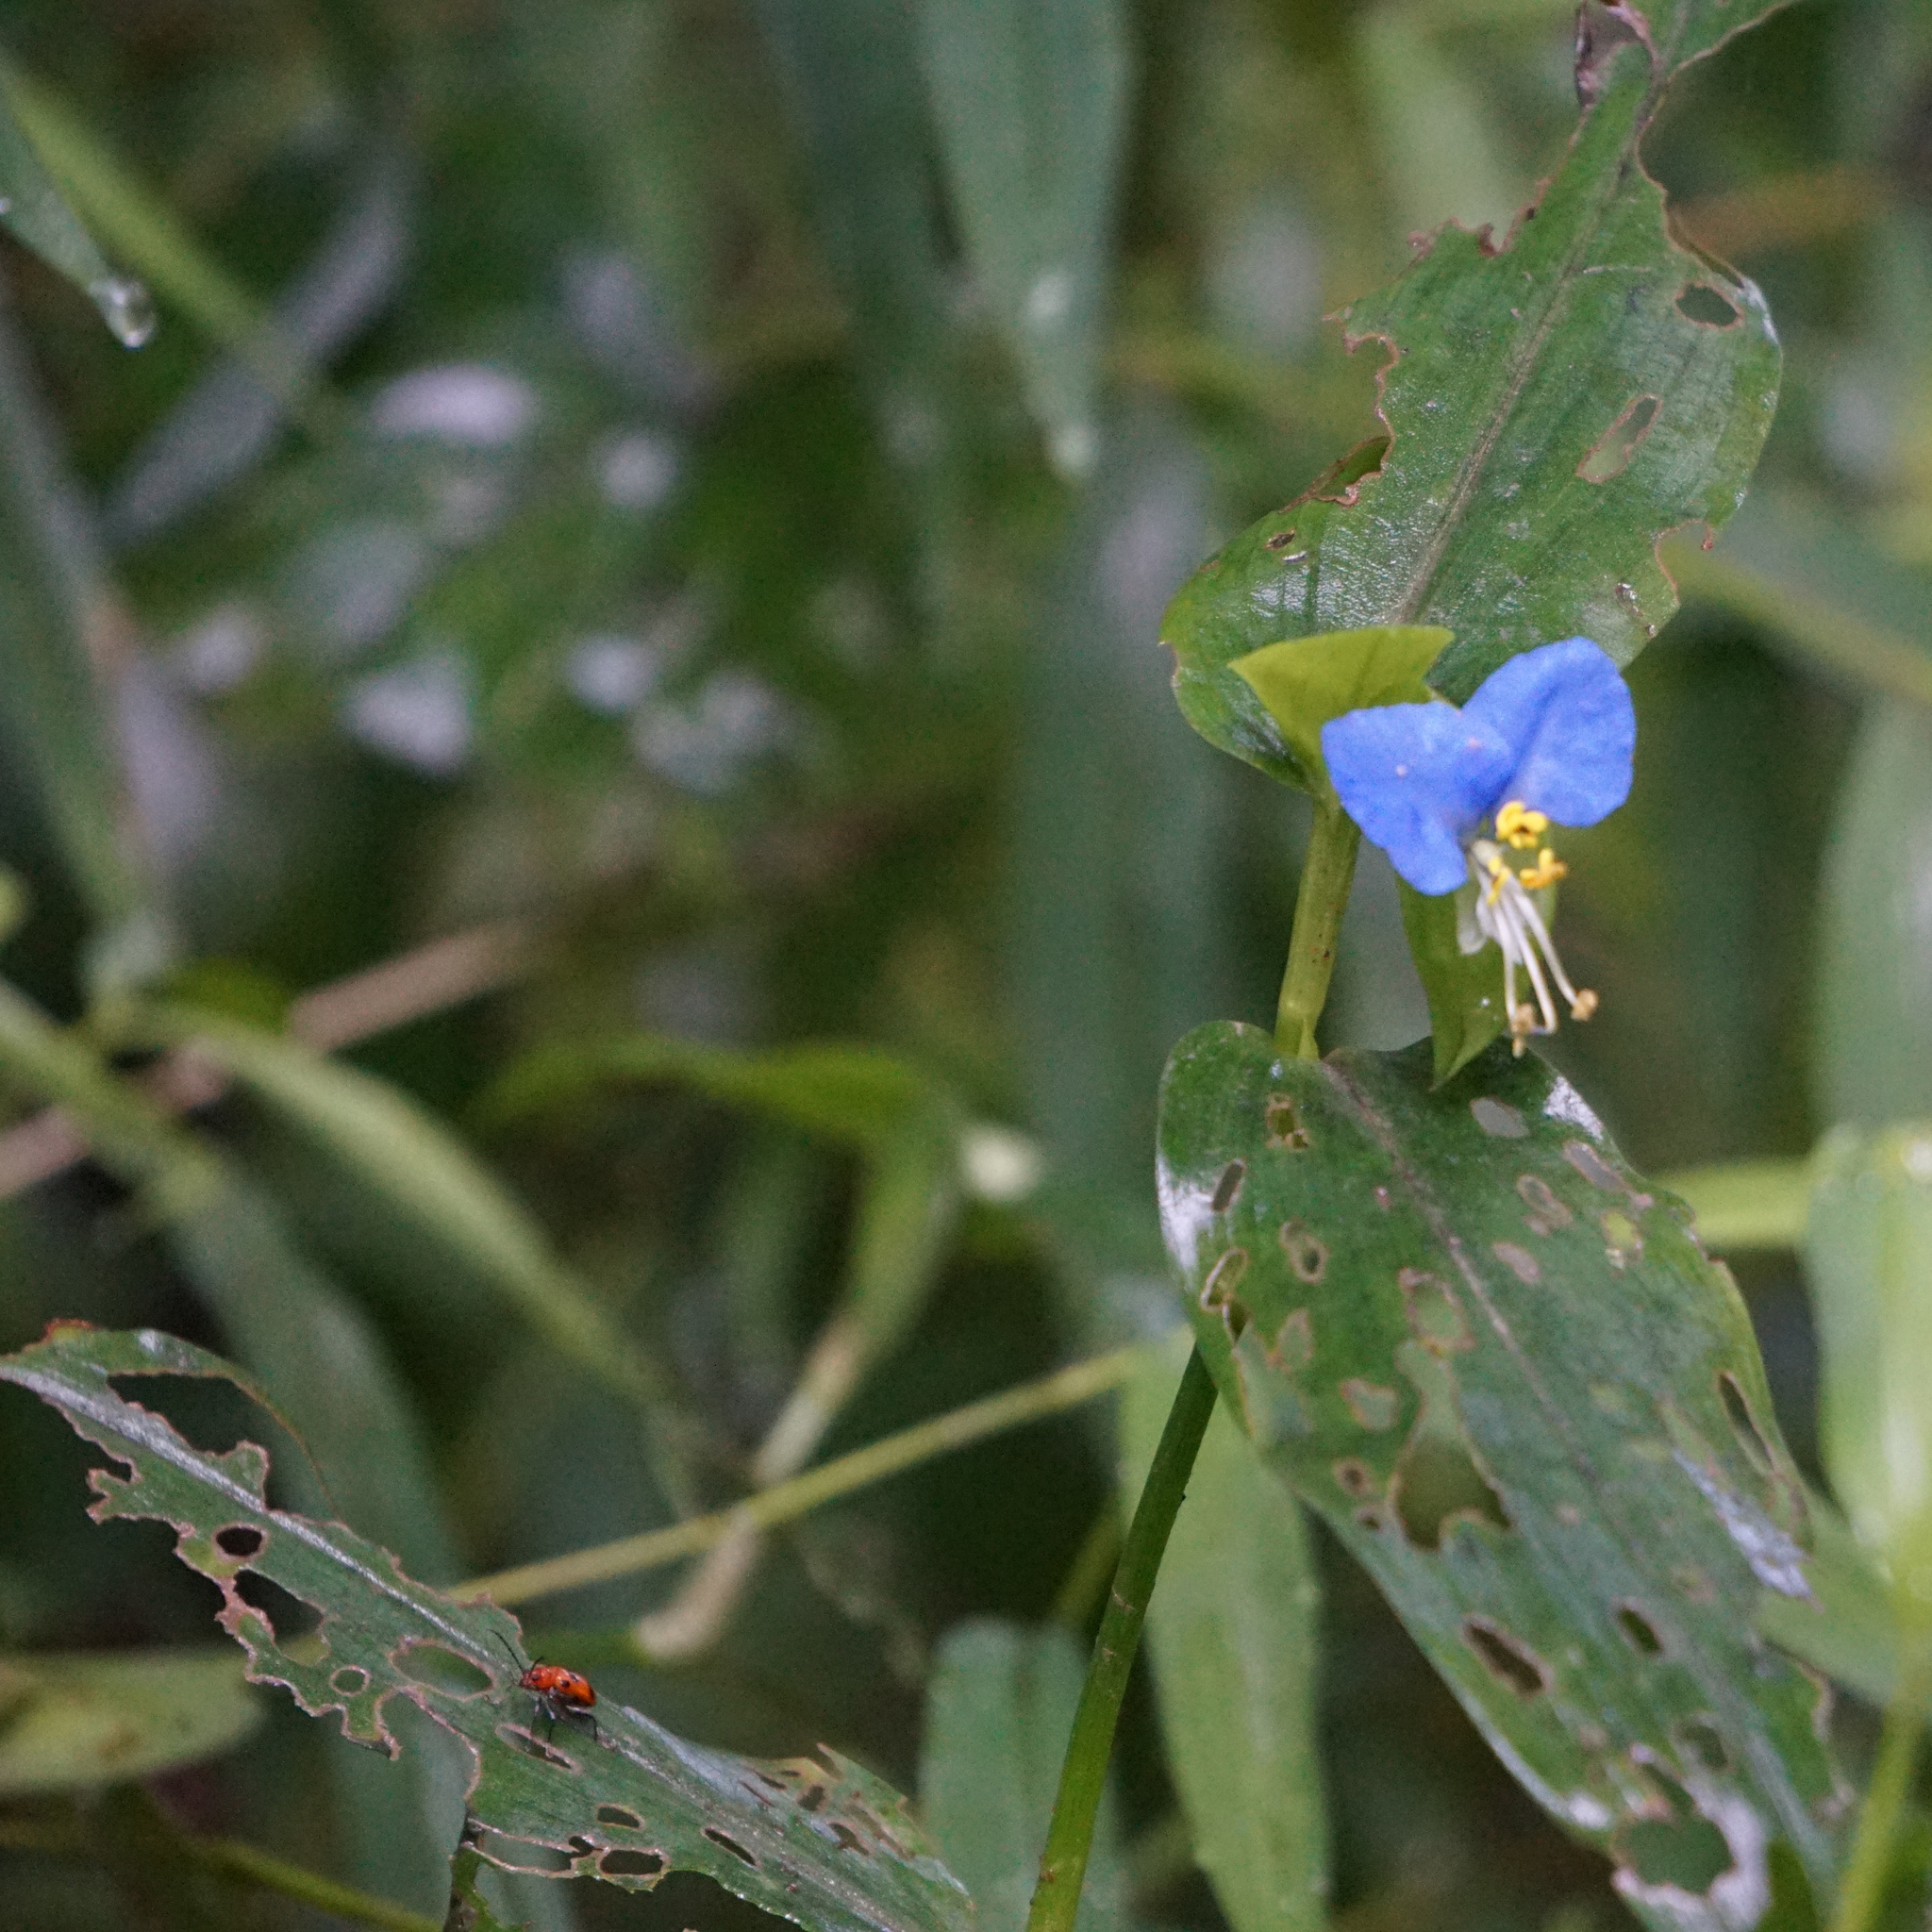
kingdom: Plantae
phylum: Tracheophyta
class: Liliopsida
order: Commelinales
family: Commelinaceae
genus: Commelina
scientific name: Commelina communis
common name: Asiatic dayflower
